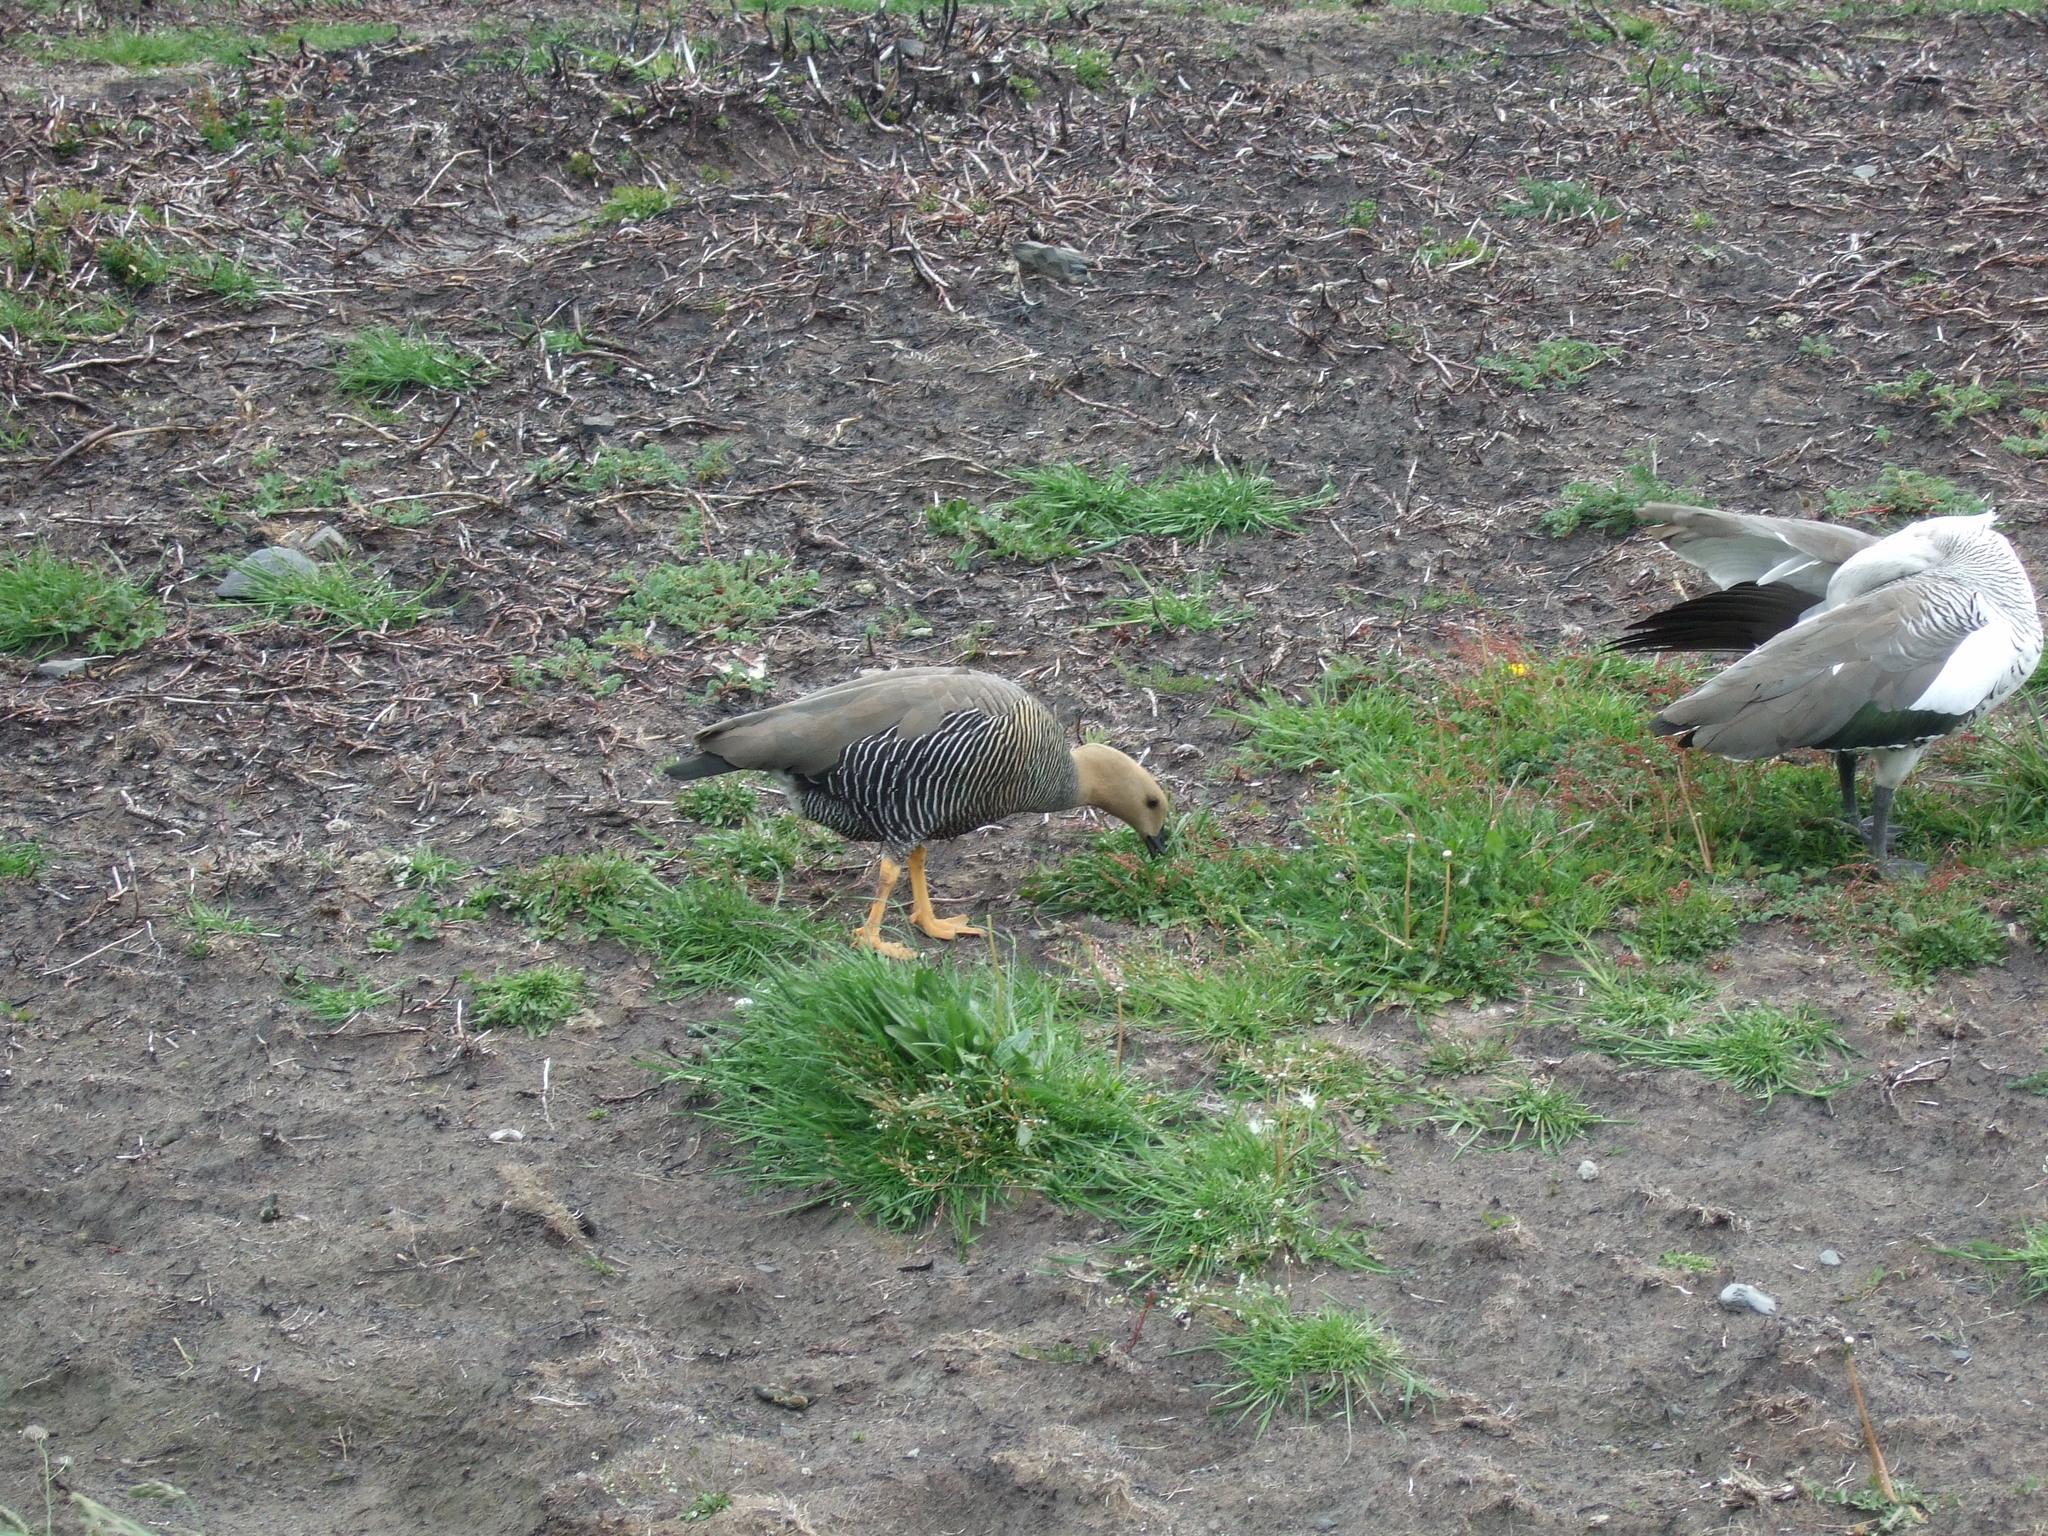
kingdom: Animalia
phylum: Chordata
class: Aves
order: Anseriformes
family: Anatidae
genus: Chloephaga
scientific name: Chloephaga picta
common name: Upland goose
